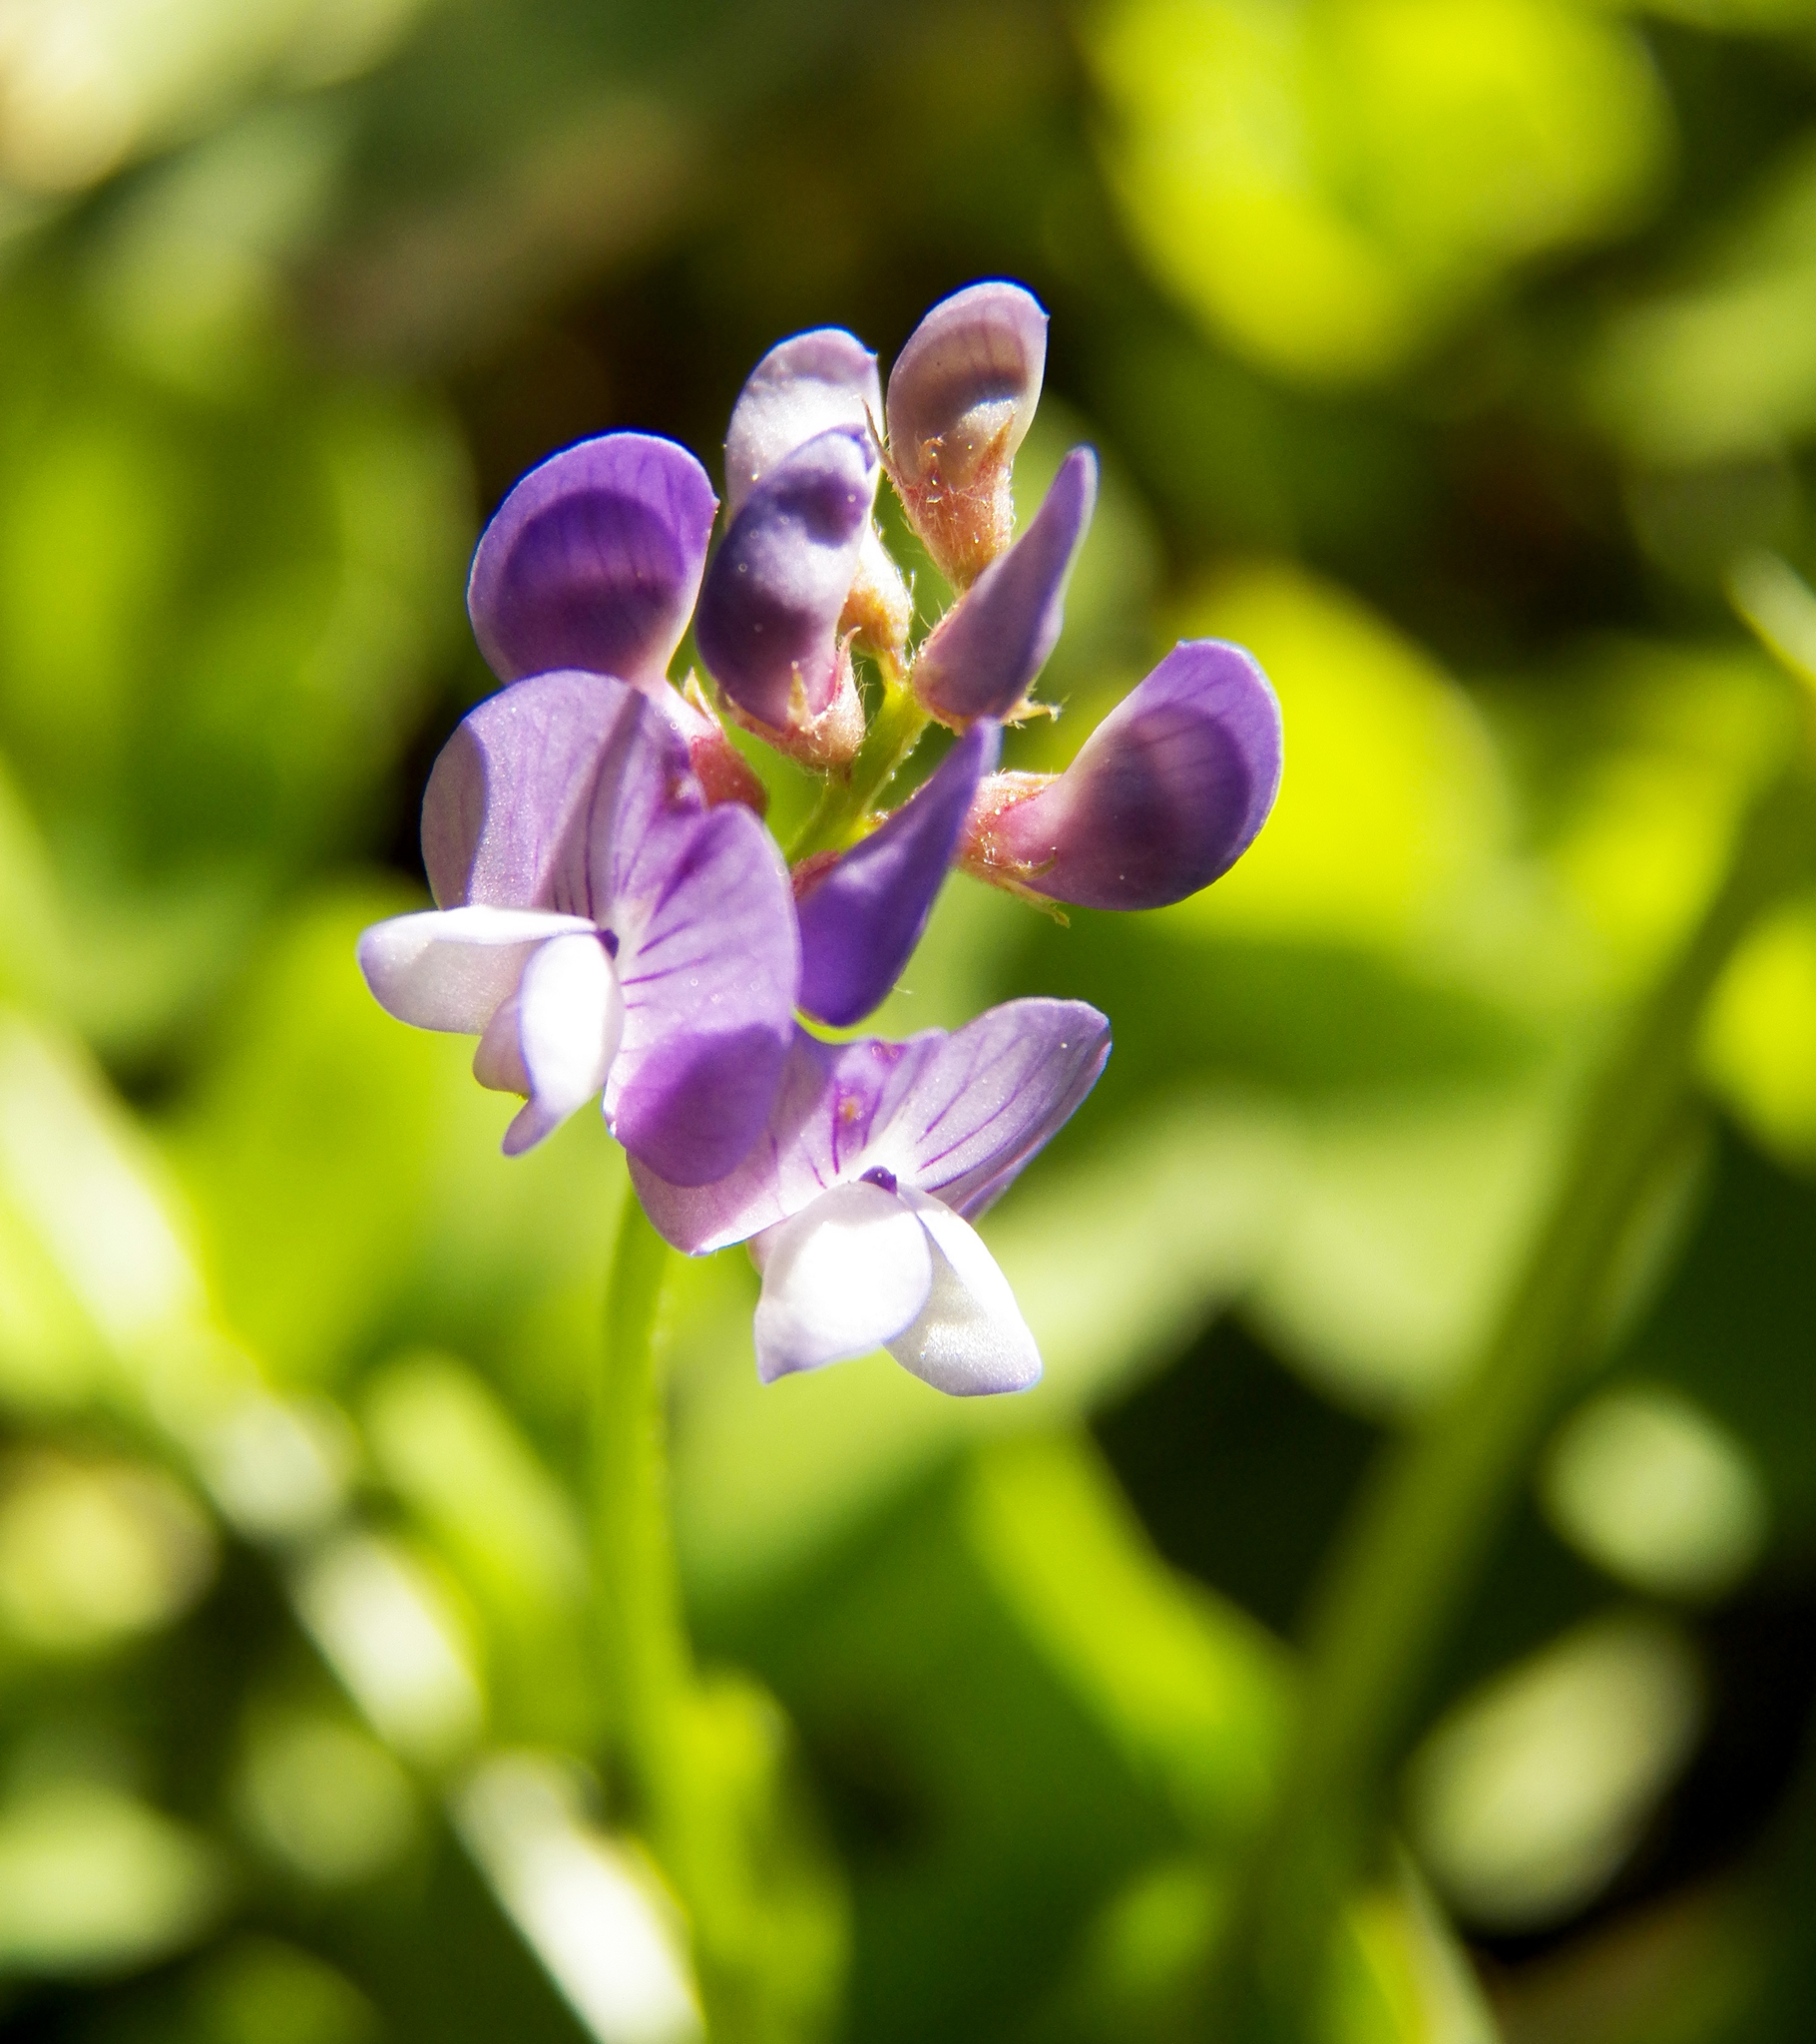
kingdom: Plantae
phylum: Tracheophyta
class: Magnoliopsida
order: Fabales
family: Fabaceae
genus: Vicia
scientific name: Vicia ludoviciana
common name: Louisiana vetch
